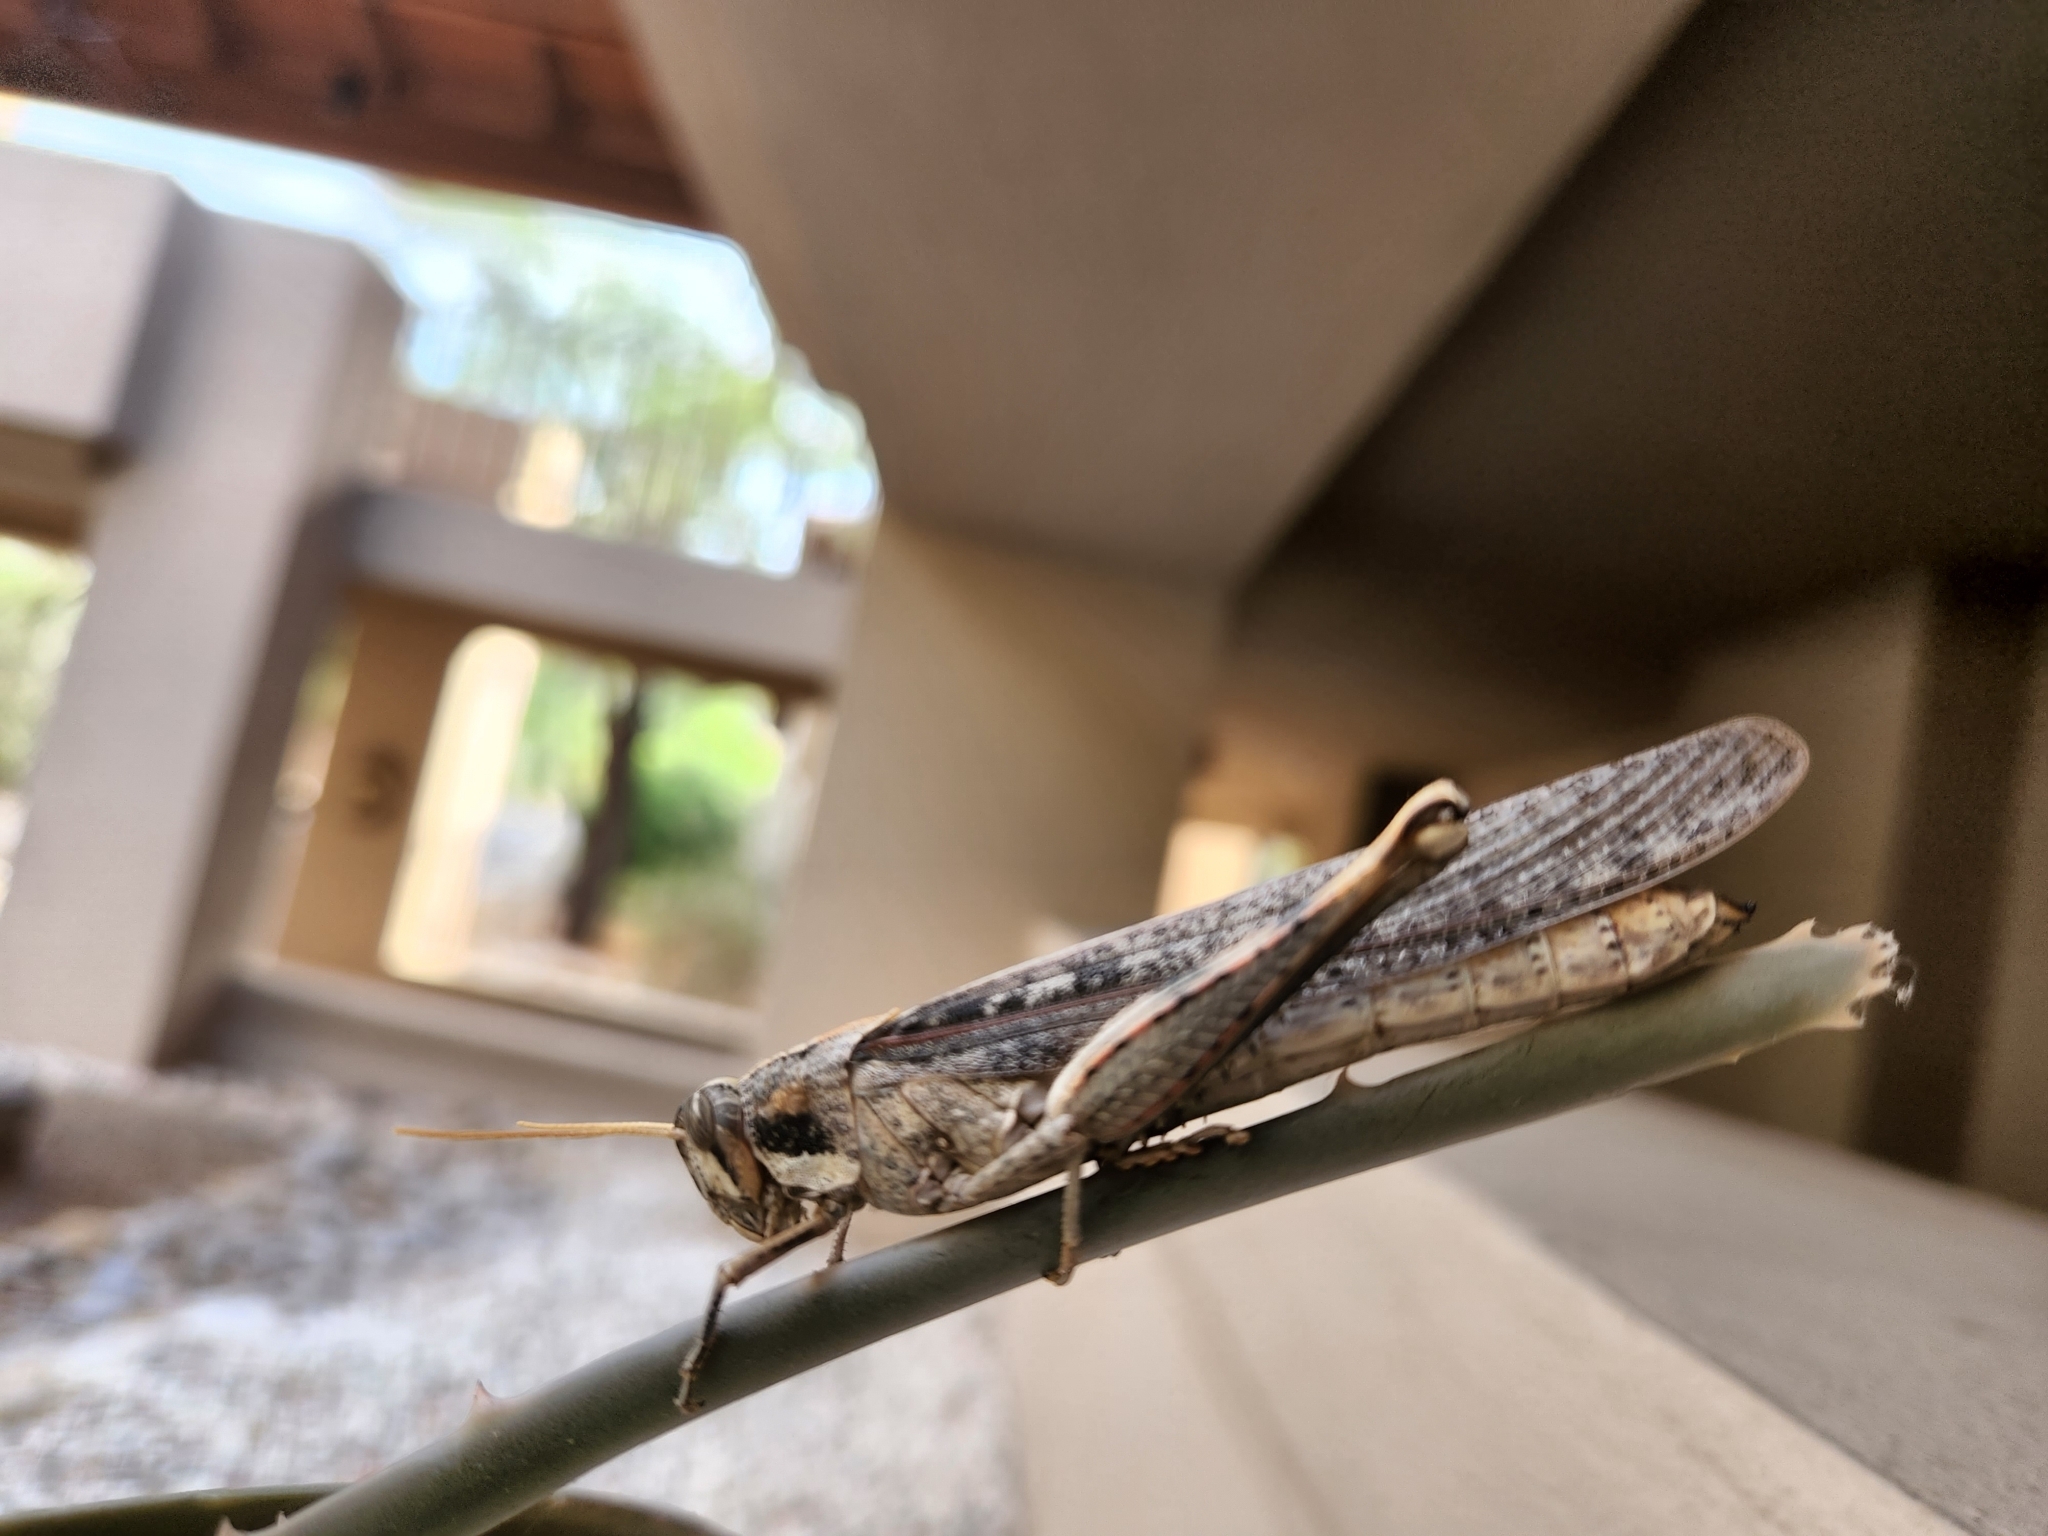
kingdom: Animalia
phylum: Arthropoda
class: Insecta
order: Orthoptera
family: Acrididae
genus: Schistocerca
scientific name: Schistocerca nitens
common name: Vagrant grasshopper
